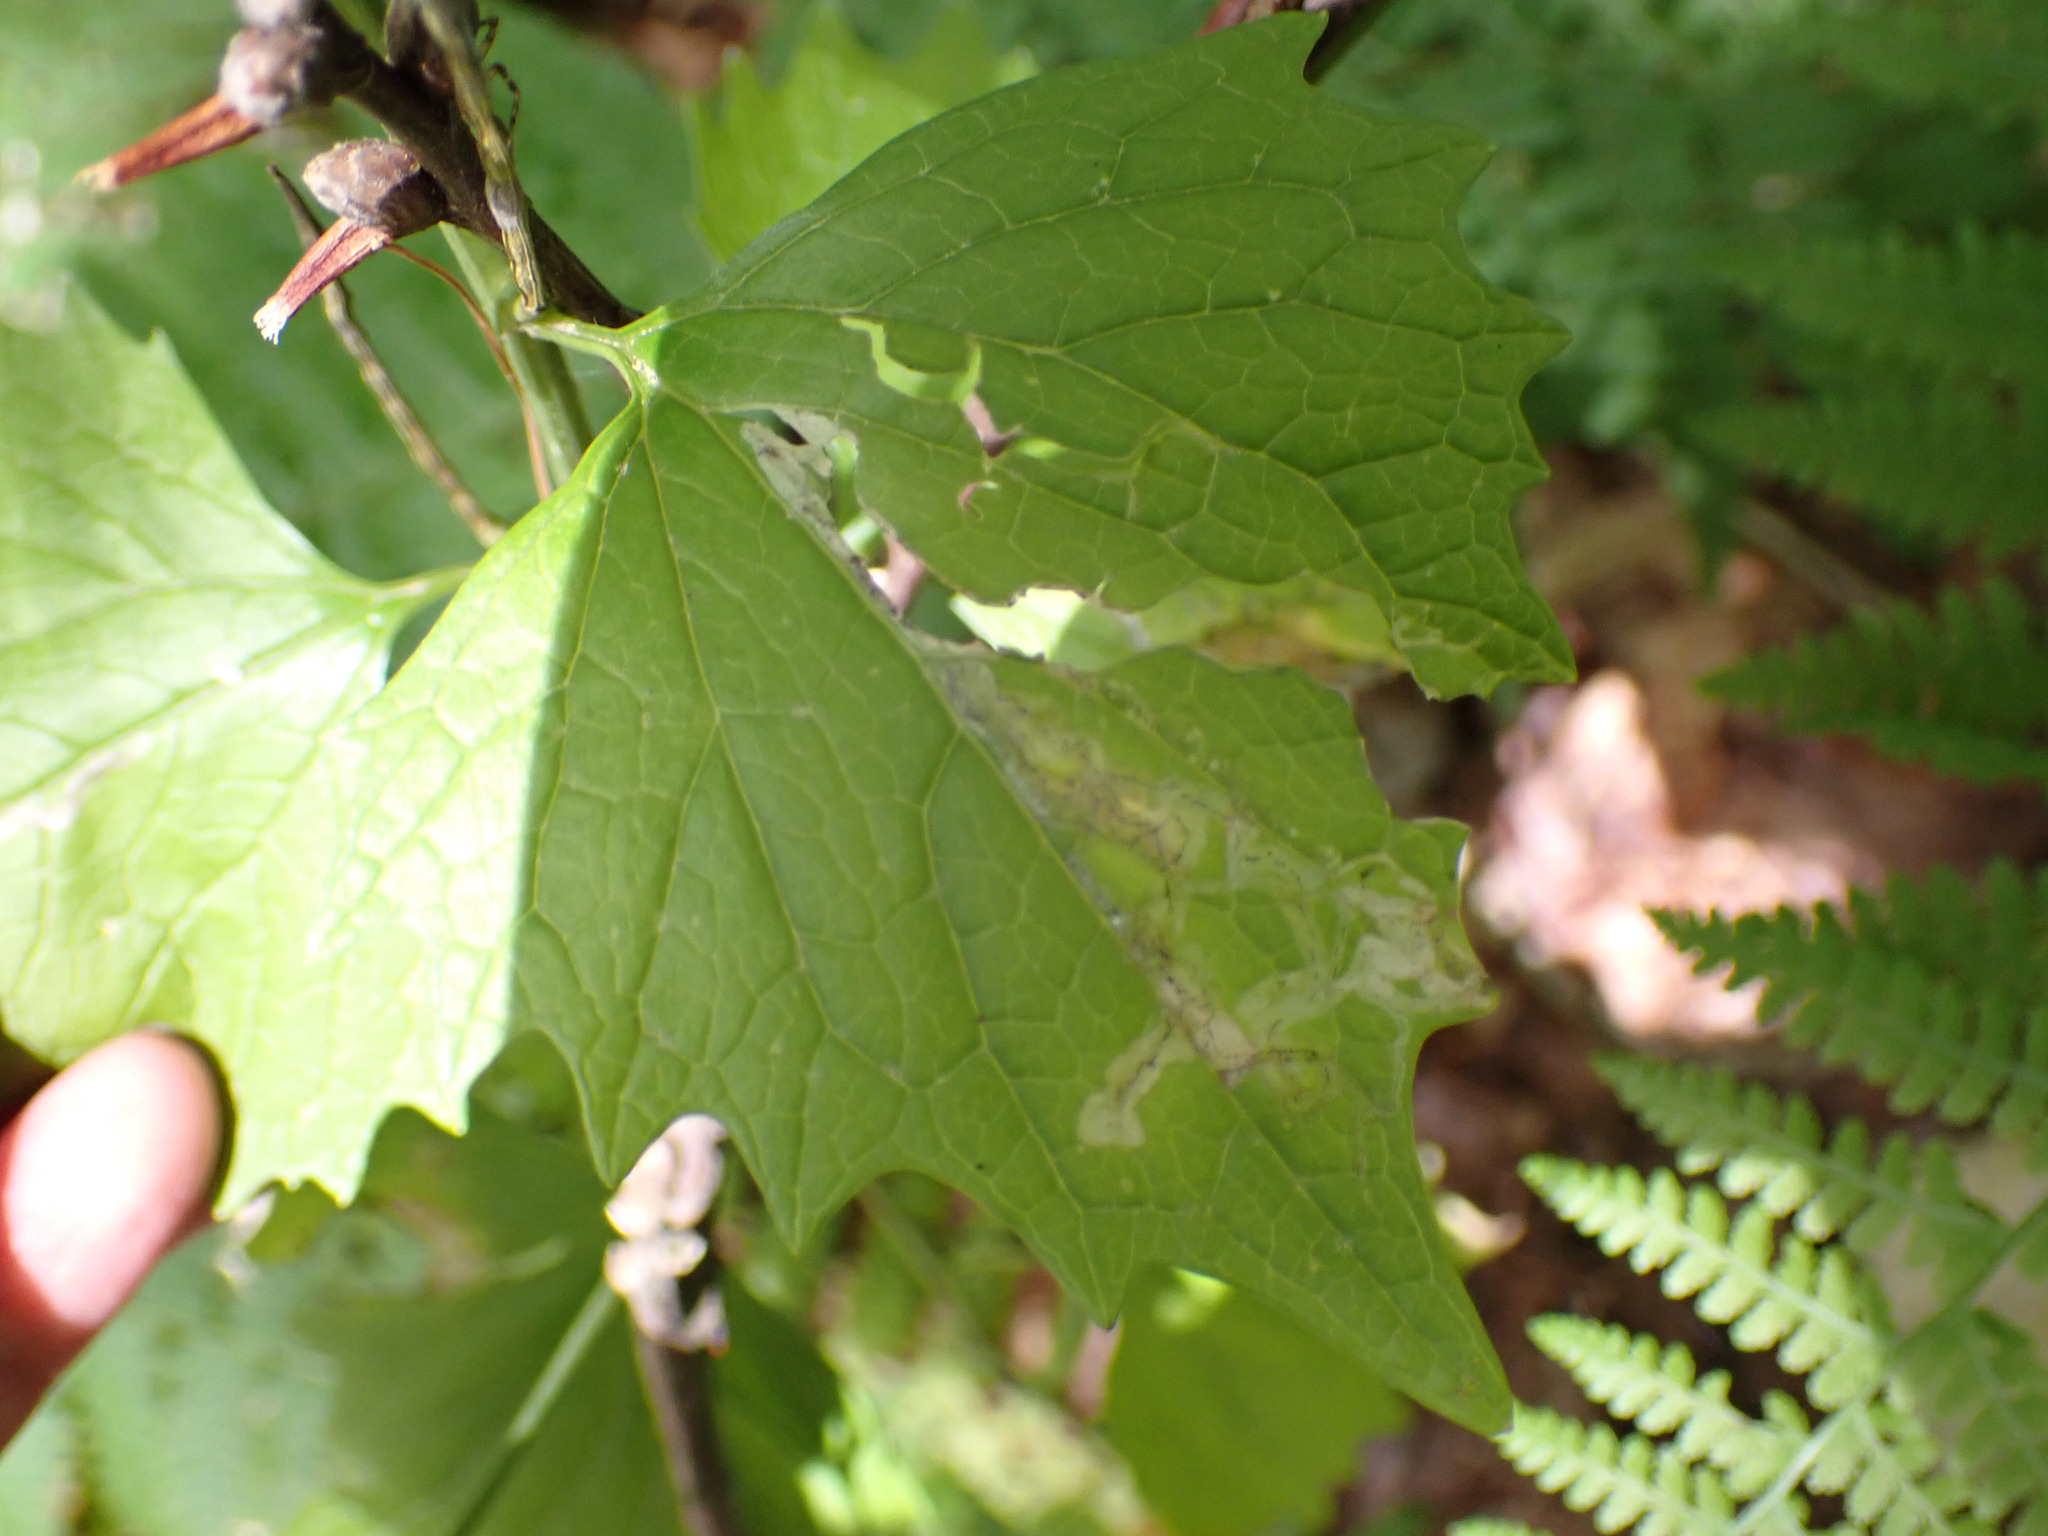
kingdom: Animalia
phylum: Arthropoda
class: Insecta
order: Diptera
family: Agromyzidae
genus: Liriomyza
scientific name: Liriomyza brassicae
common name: Serpentine leaf miner
